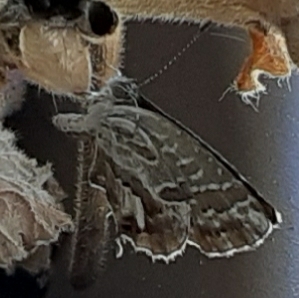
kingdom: Animalia
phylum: Arthropoda
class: Insecta
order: Lepidoptera
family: Lycaenidae
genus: Cacyreus
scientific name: Cacyreus marshalli
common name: Geranium bronze
